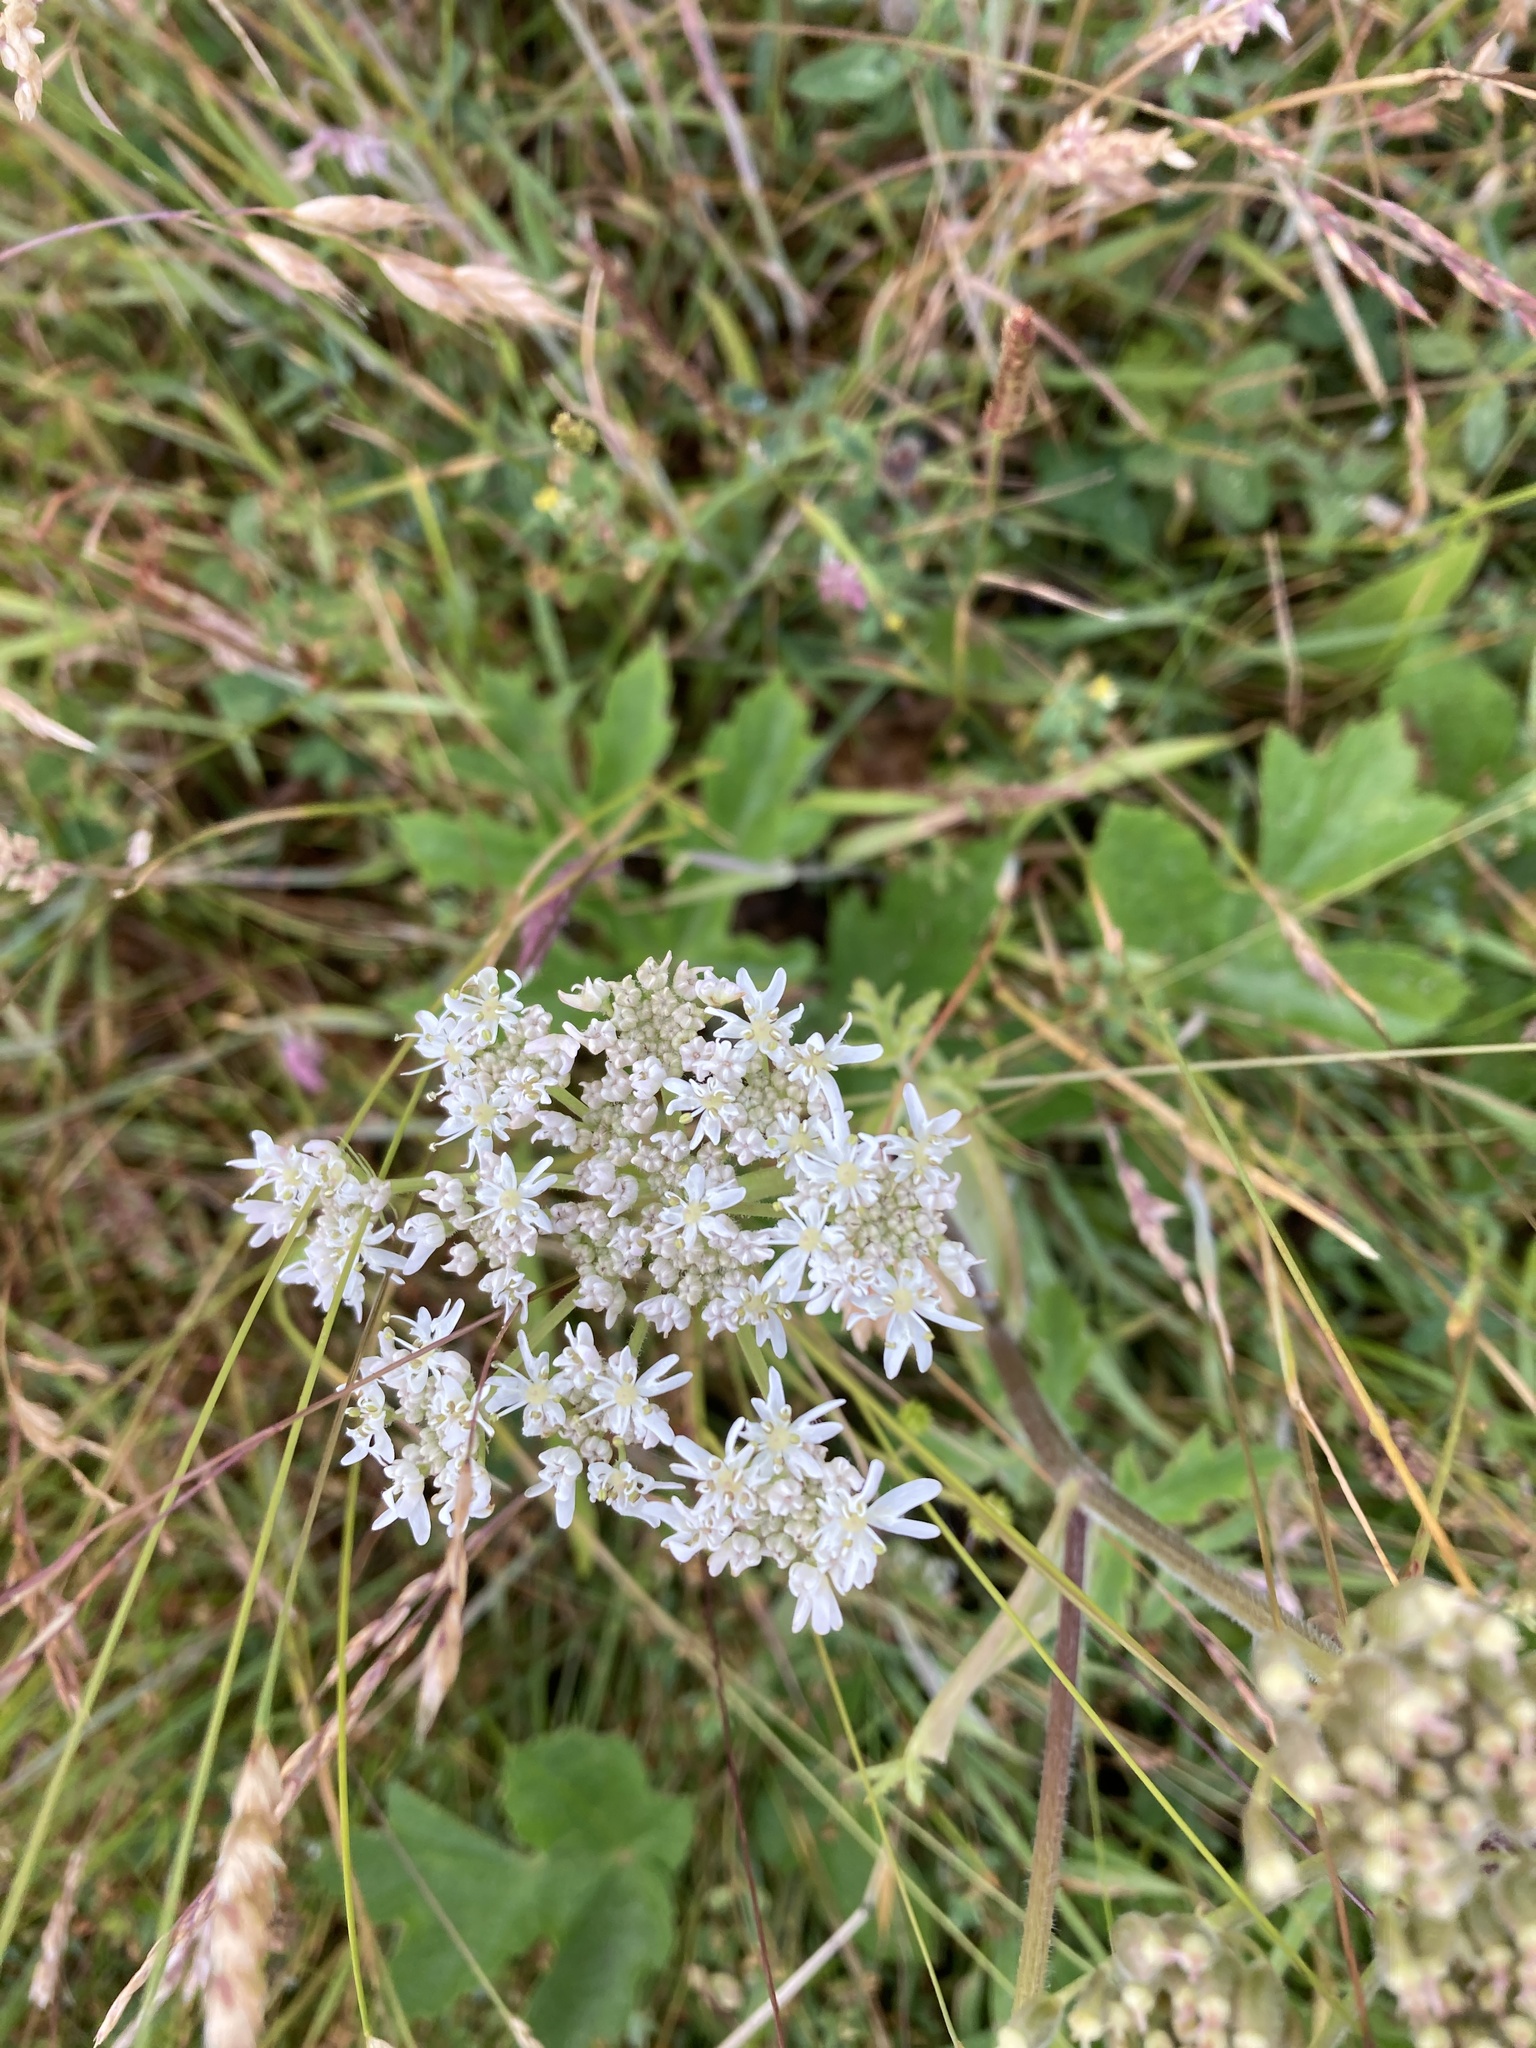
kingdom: Plantae
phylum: Tracheophyta
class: Magnoliopsida
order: Apiales
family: Apiaceae
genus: Heracleum
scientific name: Heracleum sphondylium
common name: Hogweed
